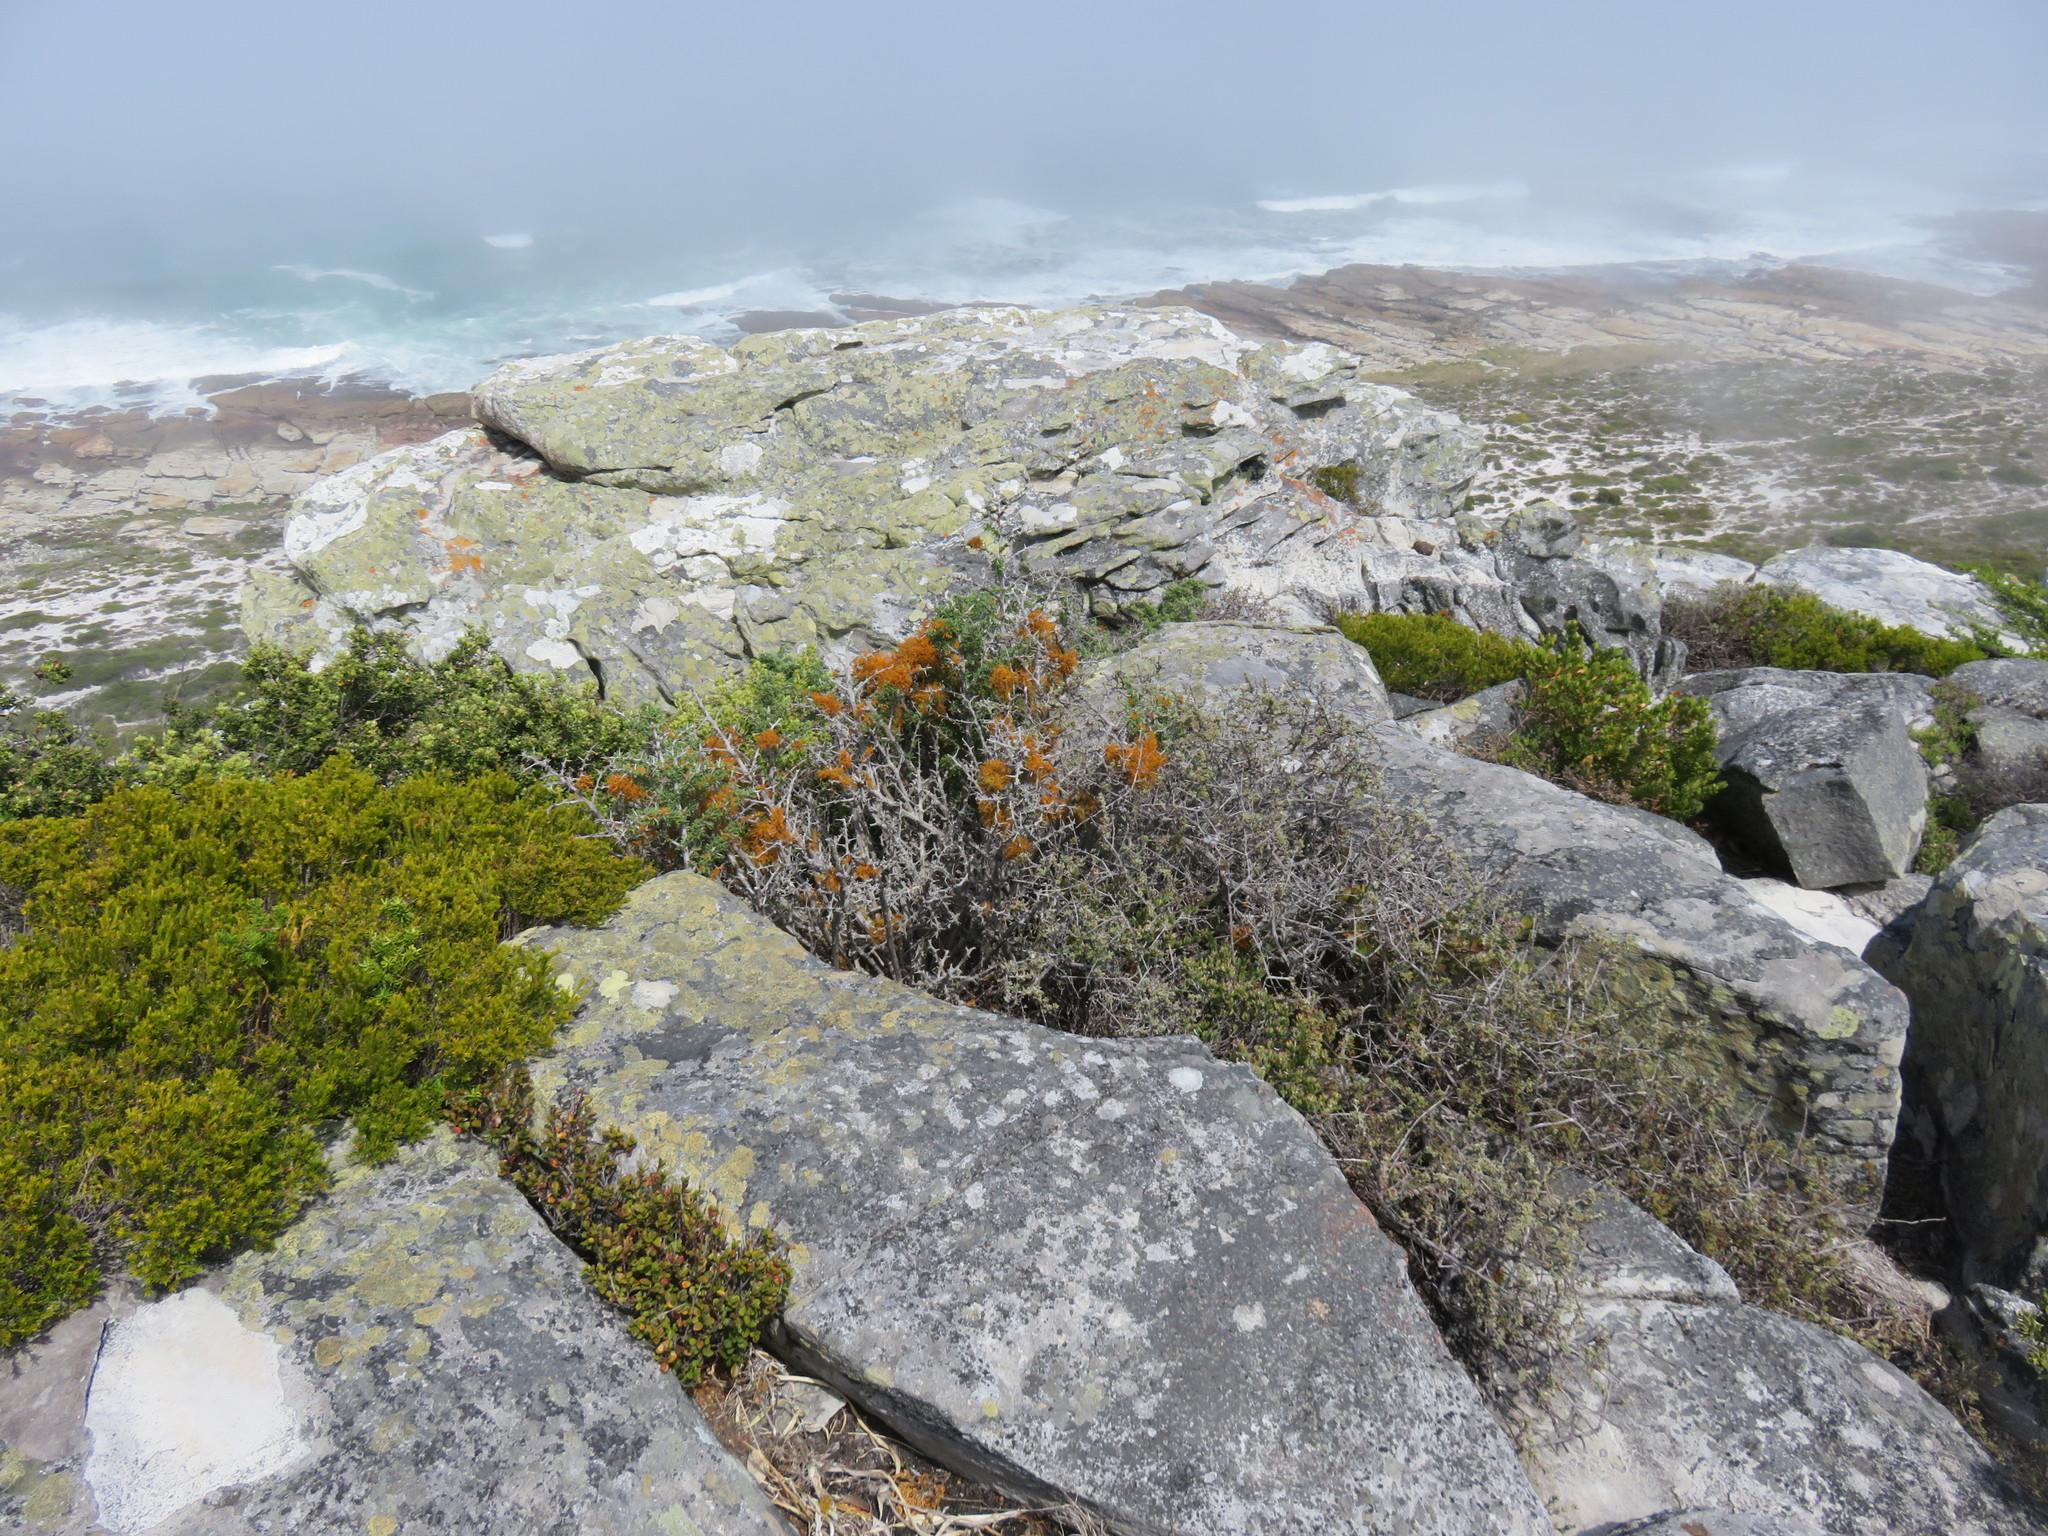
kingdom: Fungi
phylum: Ascomycota
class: Lecanoromycetes
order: Teloschistales
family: Teloschistaceae
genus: Teloschistes
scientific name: Teloschistes capensis
